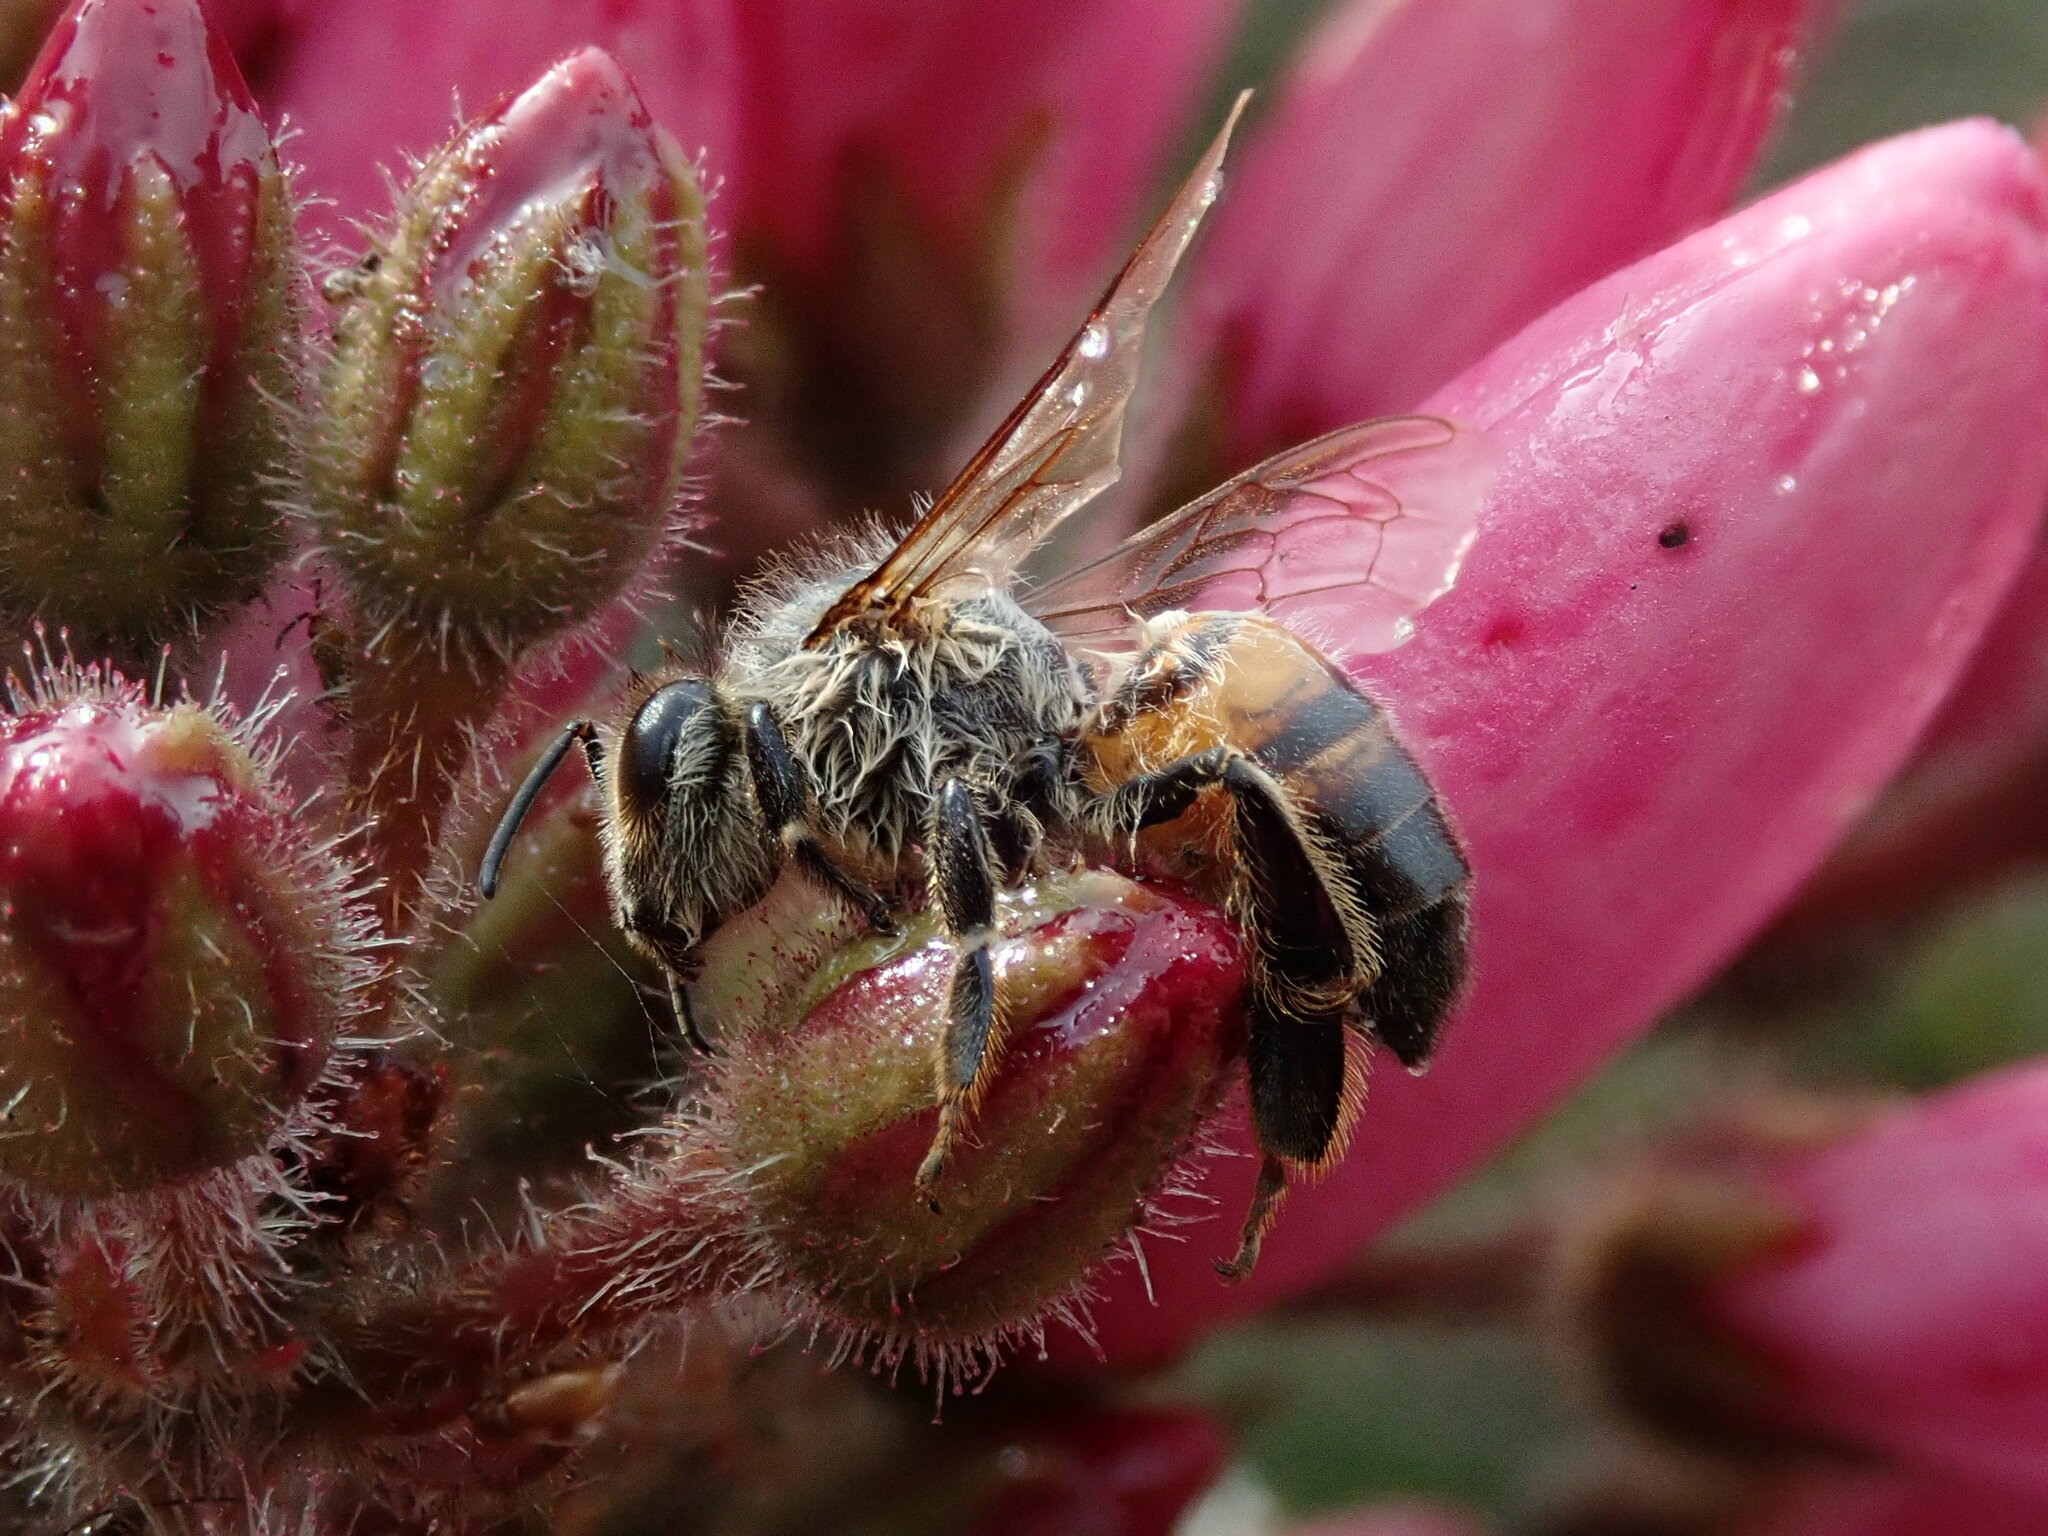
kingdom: Animalia
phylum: Arthropoda
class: Insecta
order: Hymenoptera
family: Apidae
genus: Apis
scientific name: Apis mellifera
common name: Honey bee
